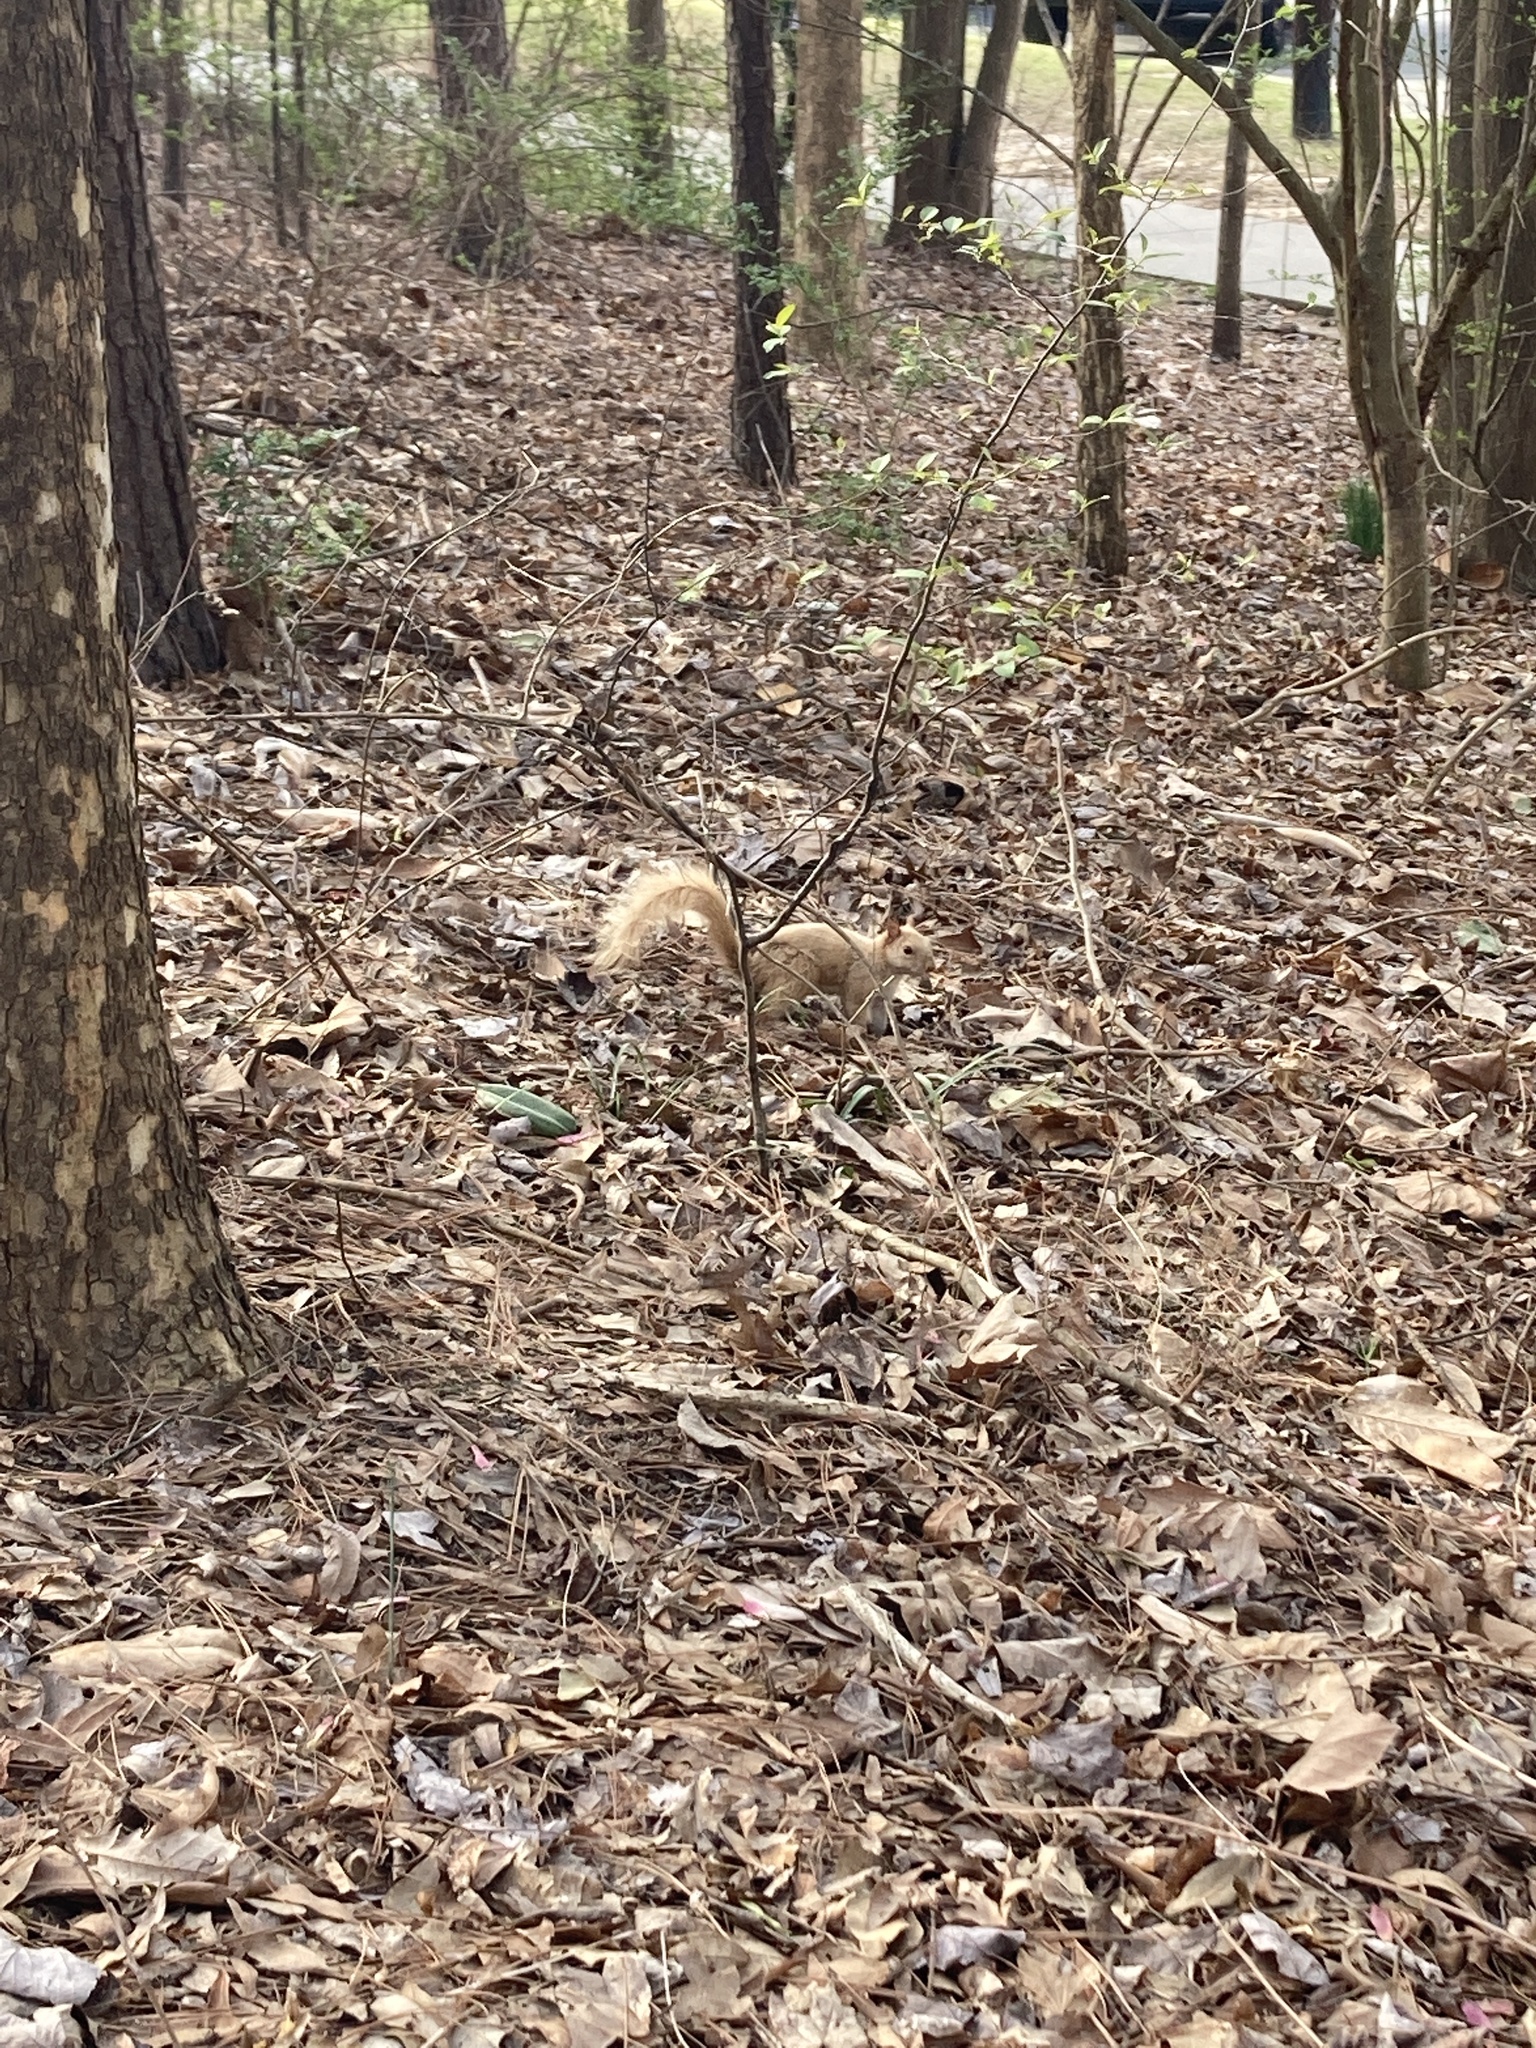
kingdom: Animalia
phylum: Chordata
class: Mammalia
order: Rodentia
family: Sciuridae
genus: Sciurus
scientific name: Sciurus carolinensis
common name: Eastern gray squirrel
